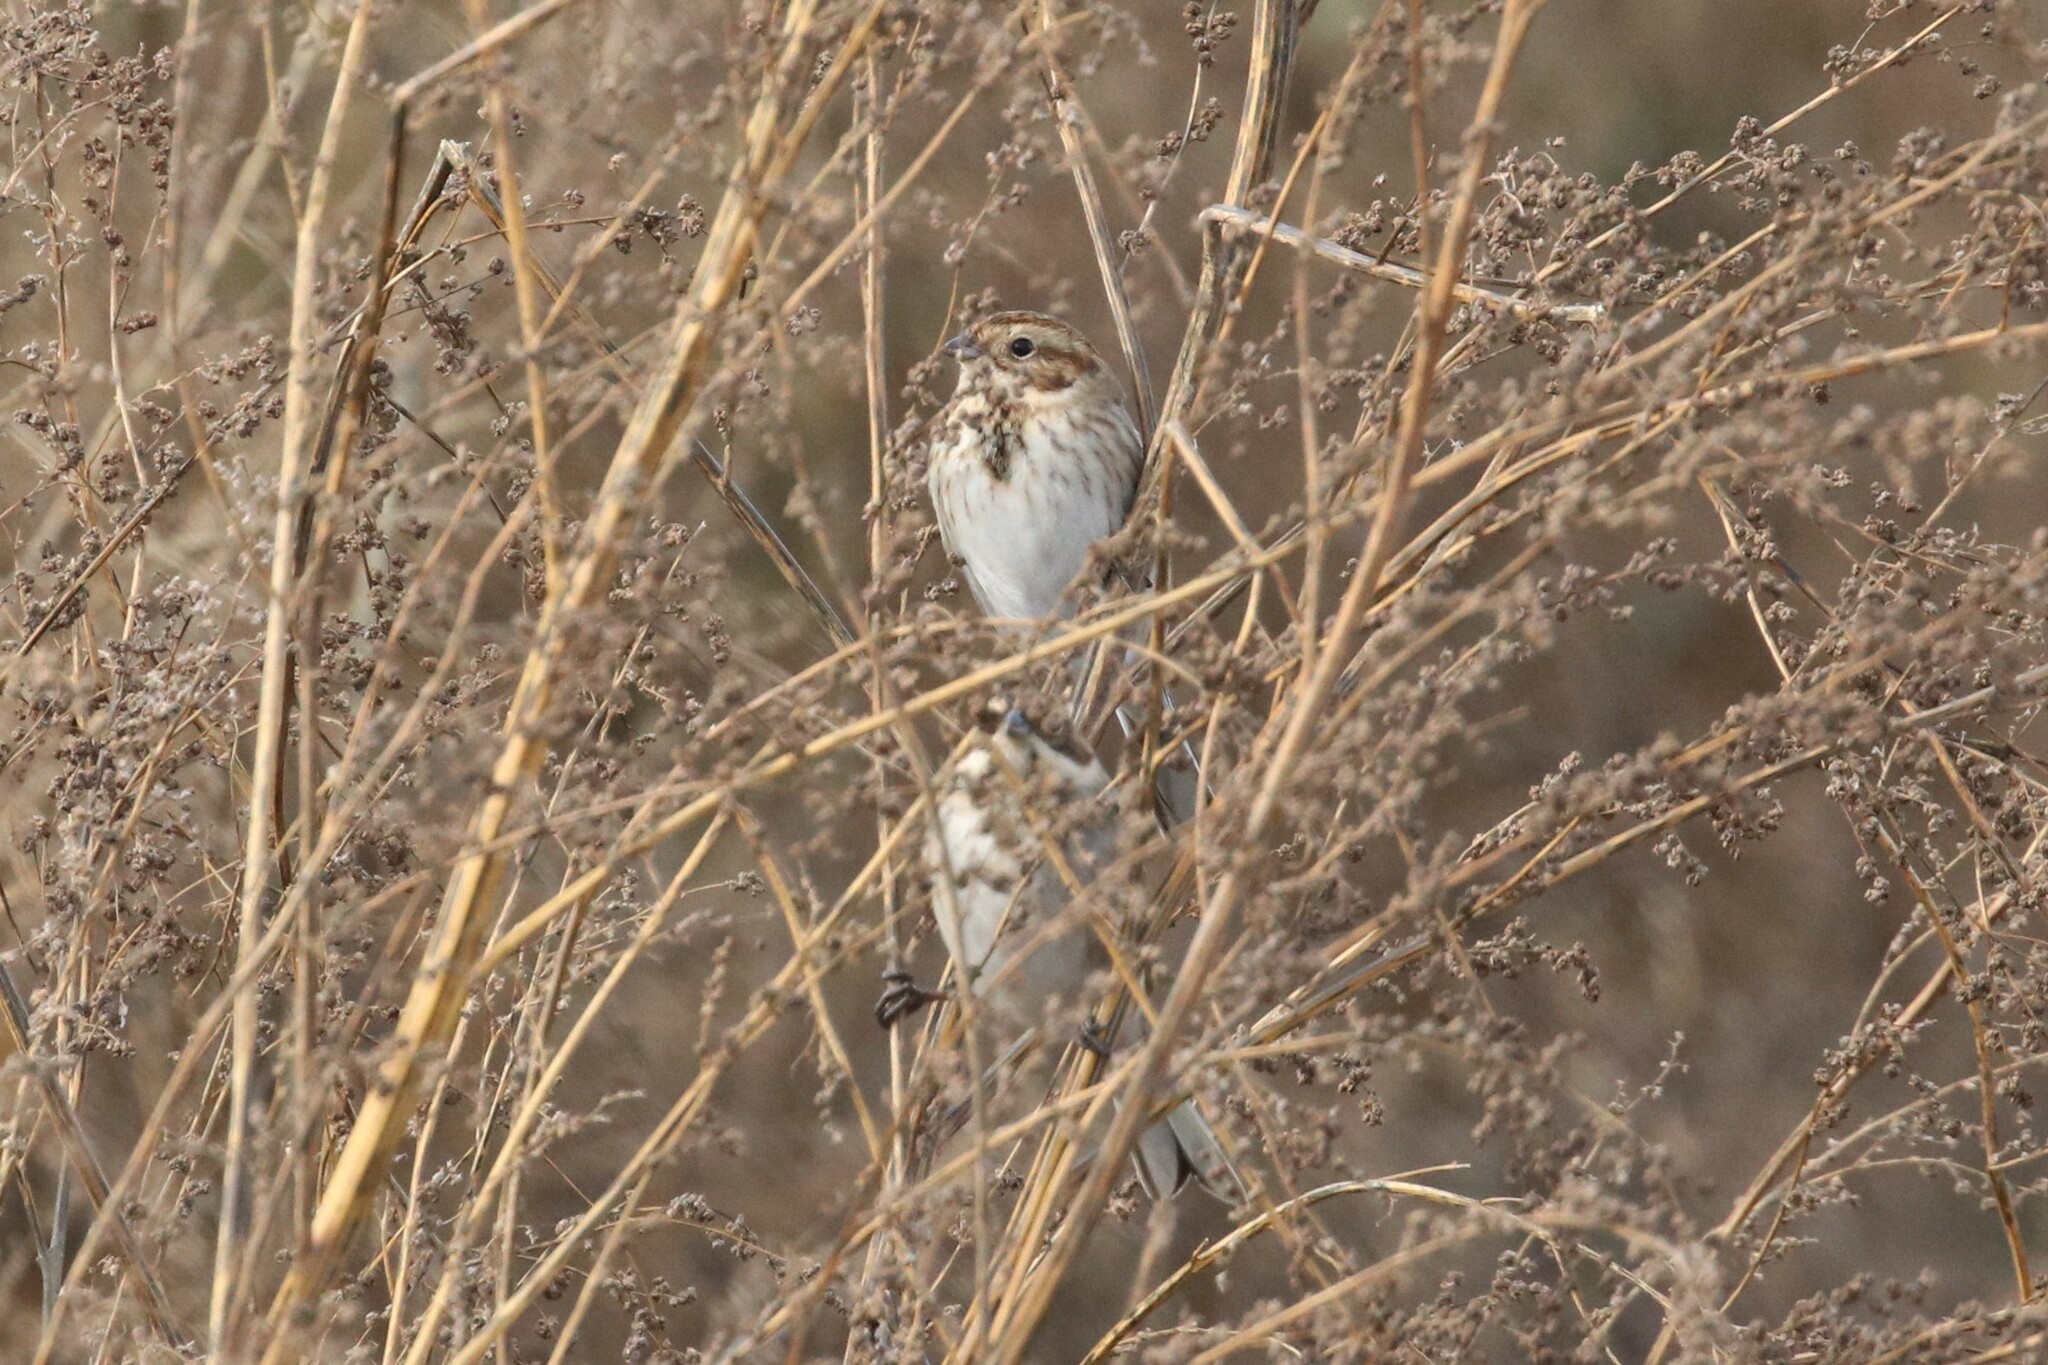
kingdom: Animalia
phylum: Chordata
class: Aves
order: Passeriformes
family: Emberizidae
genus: Emberiza
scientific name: Emberiza schoeniclus
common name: Reed bunting
